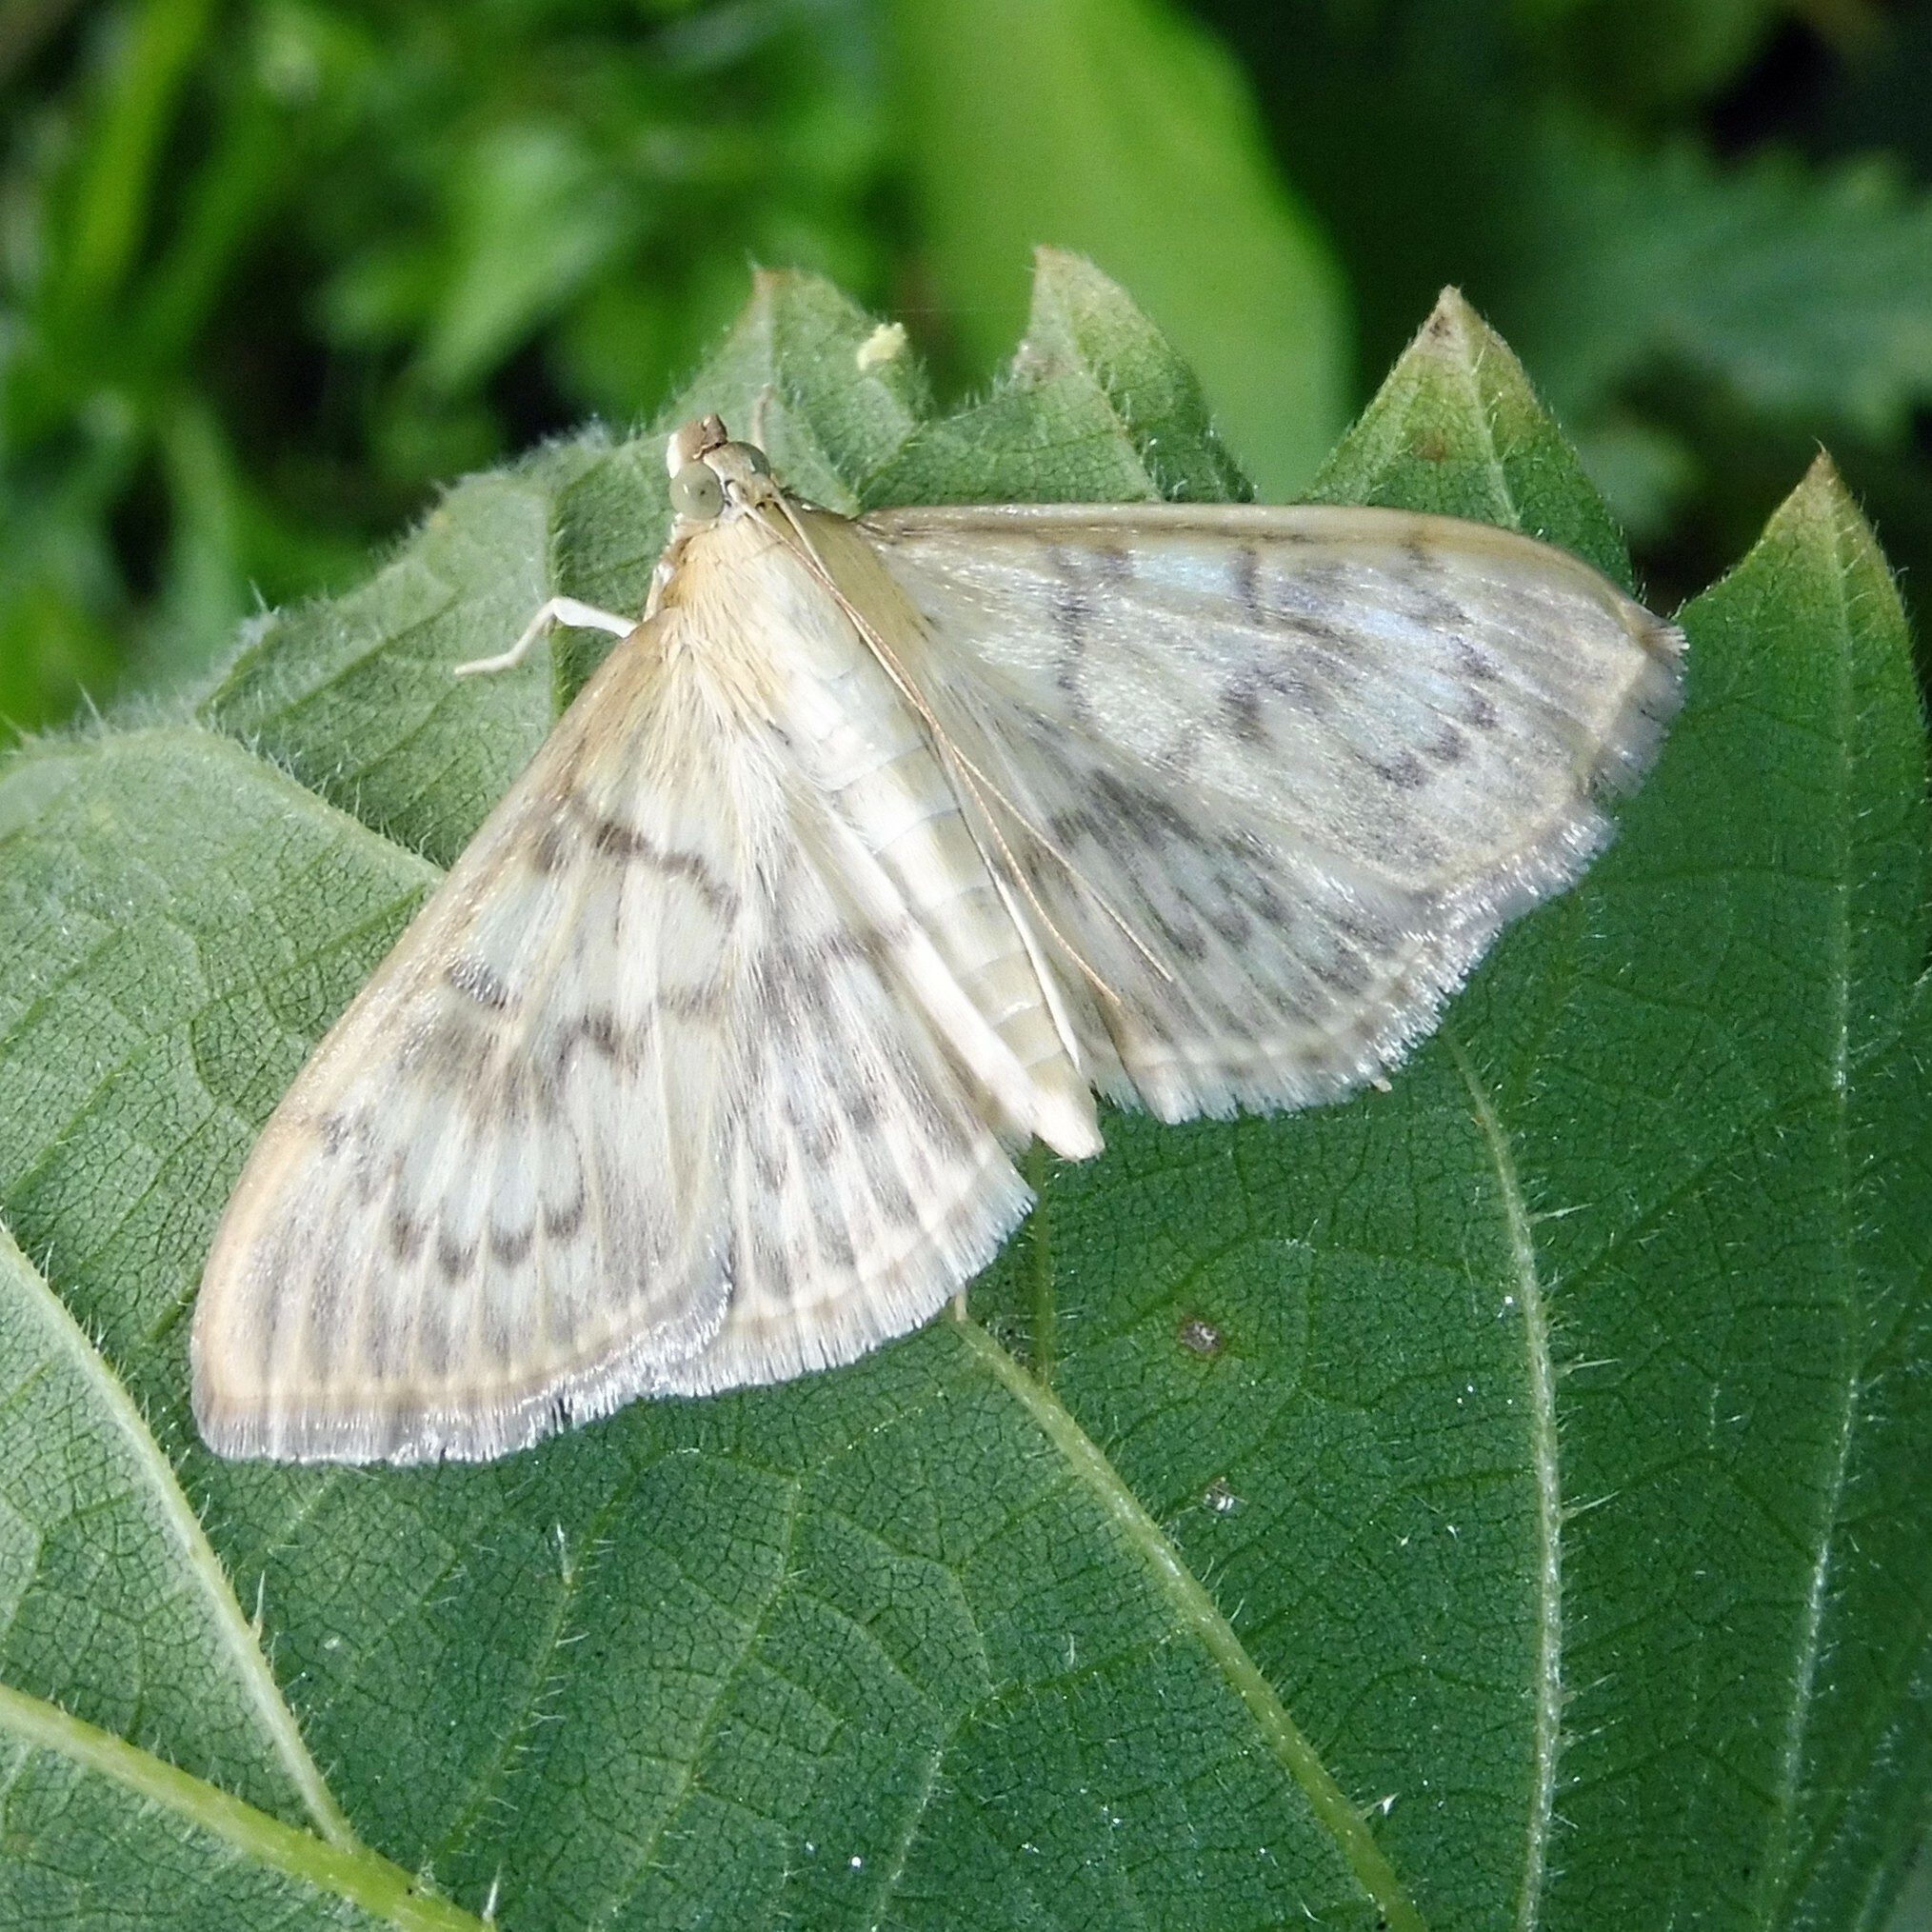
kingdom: Animalia
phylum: Arthropoda
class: Insecta
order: Lepidoptera
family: Crambidae
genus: Patania
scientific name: Patania ruralis
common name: Mother of pearl
